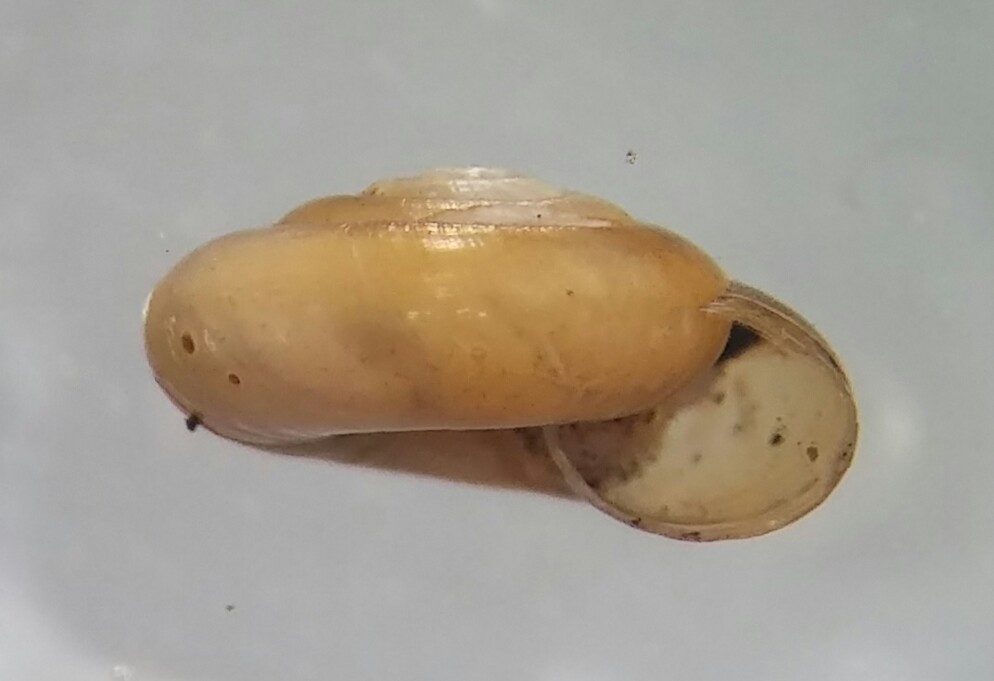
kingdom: Animalia
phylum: Mollusca
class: Gastropoda
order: Stylommatophora
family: Gastrodontidae
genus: Zonitoides
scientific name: Zonitoides arboreus
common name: Quick gloss
